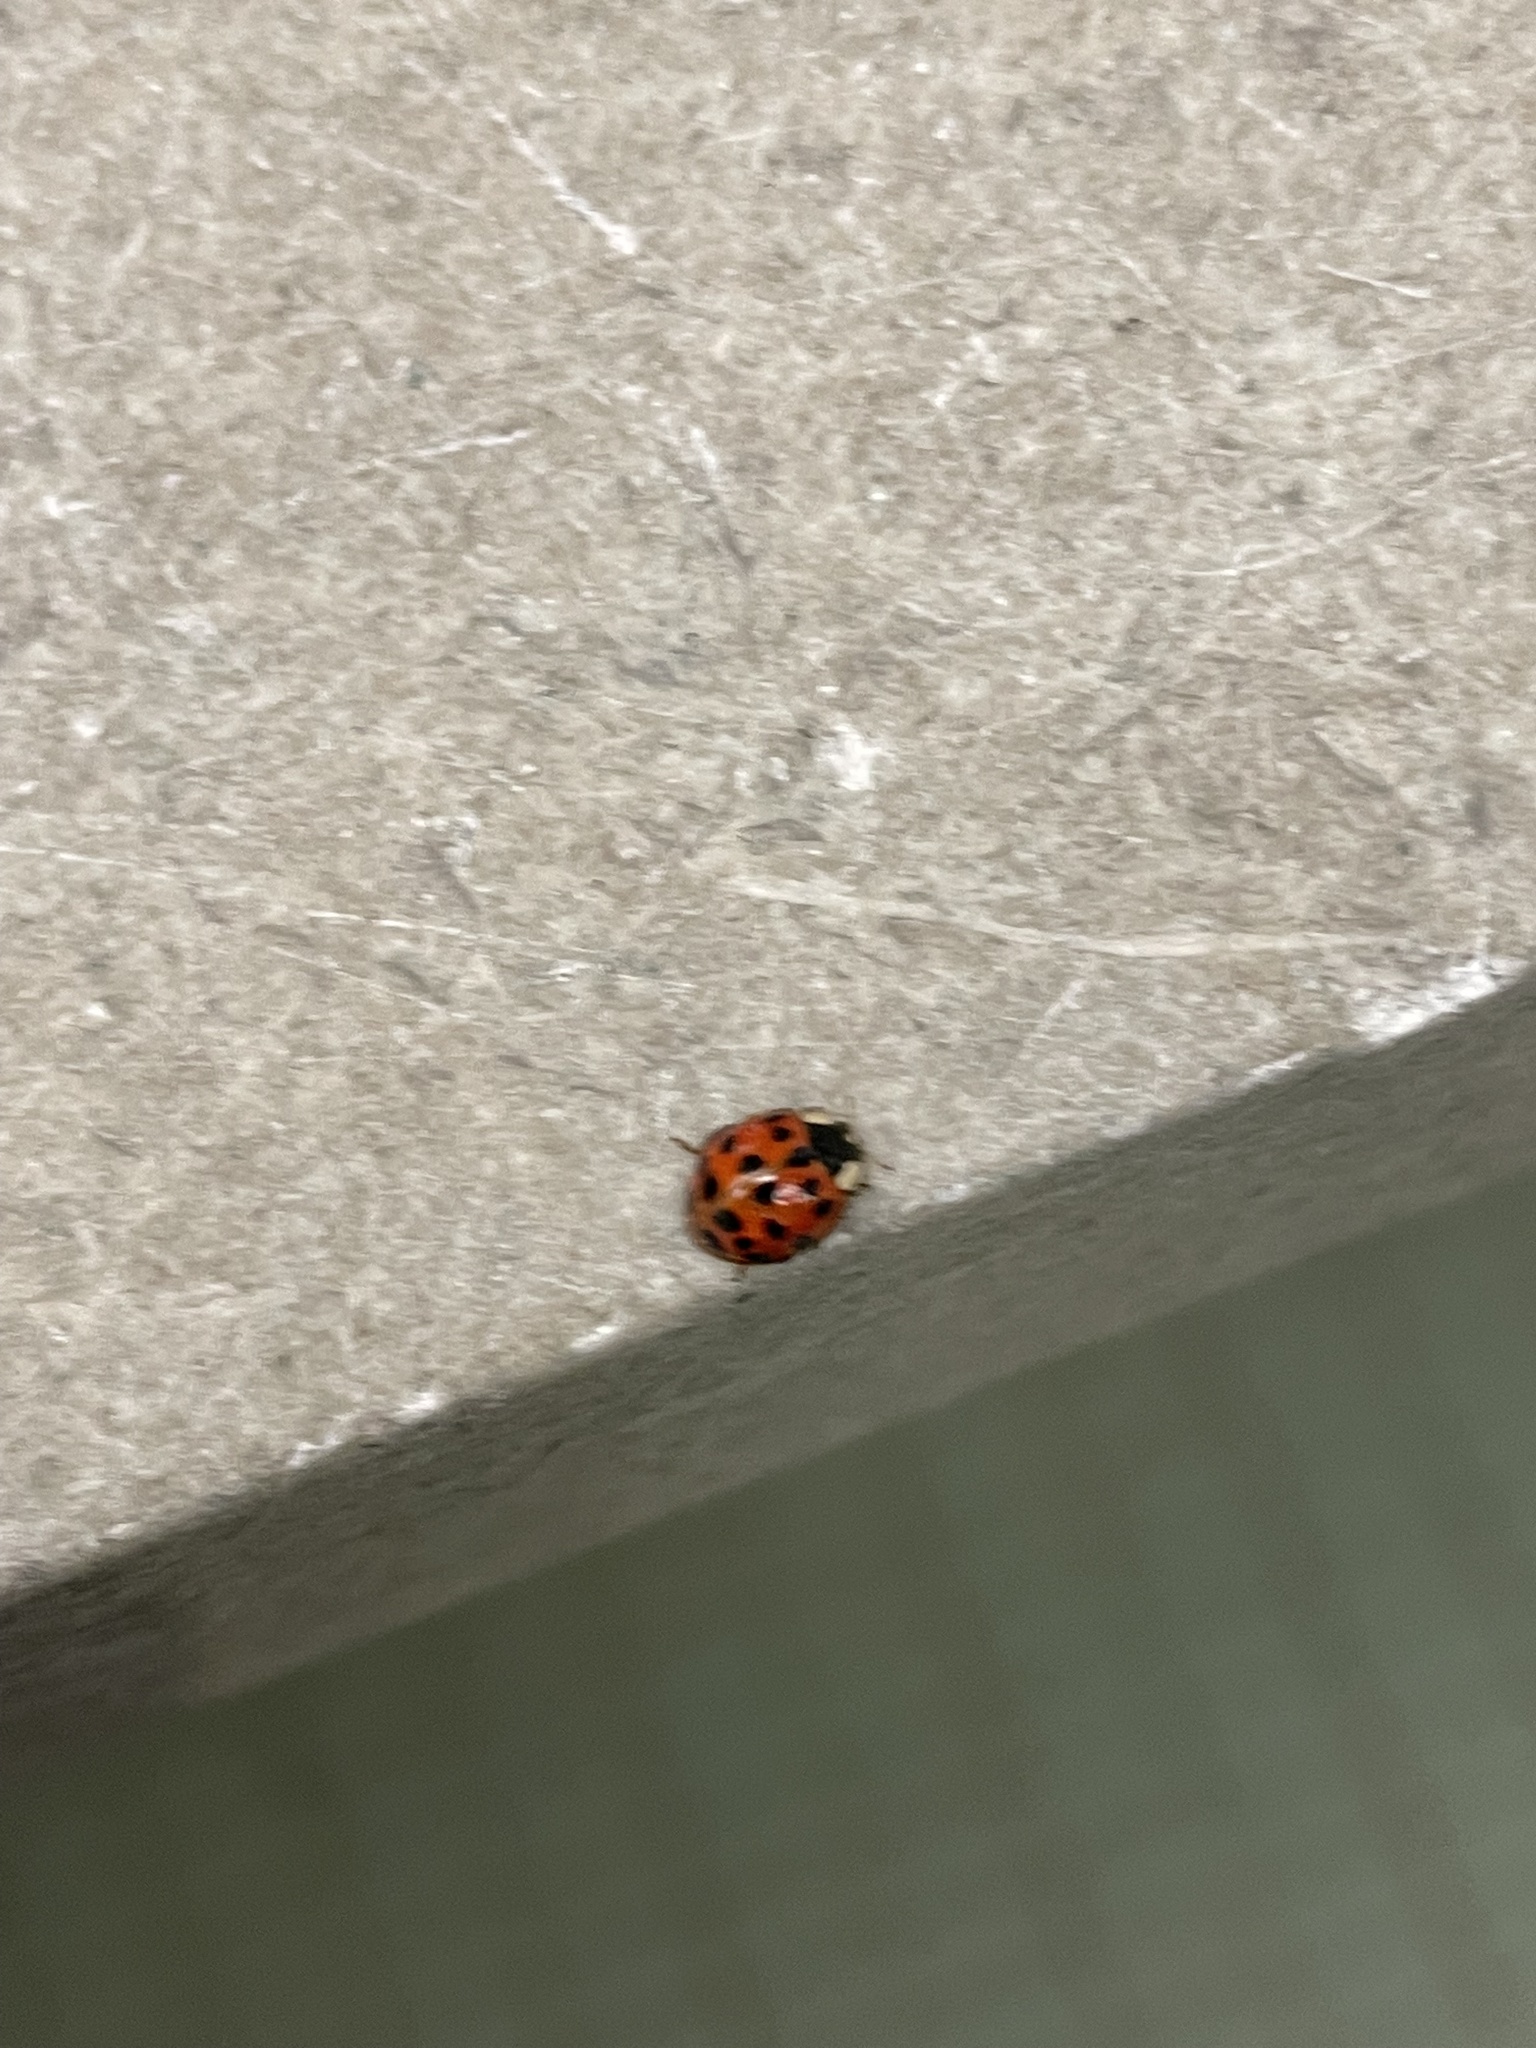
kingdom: Animalia
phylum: Arthropoda
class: Insecta
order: Coleoptera
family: Coccinellidae
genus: Harmonia
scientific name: Harmonia axyridis
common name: Harlequin ladybird
